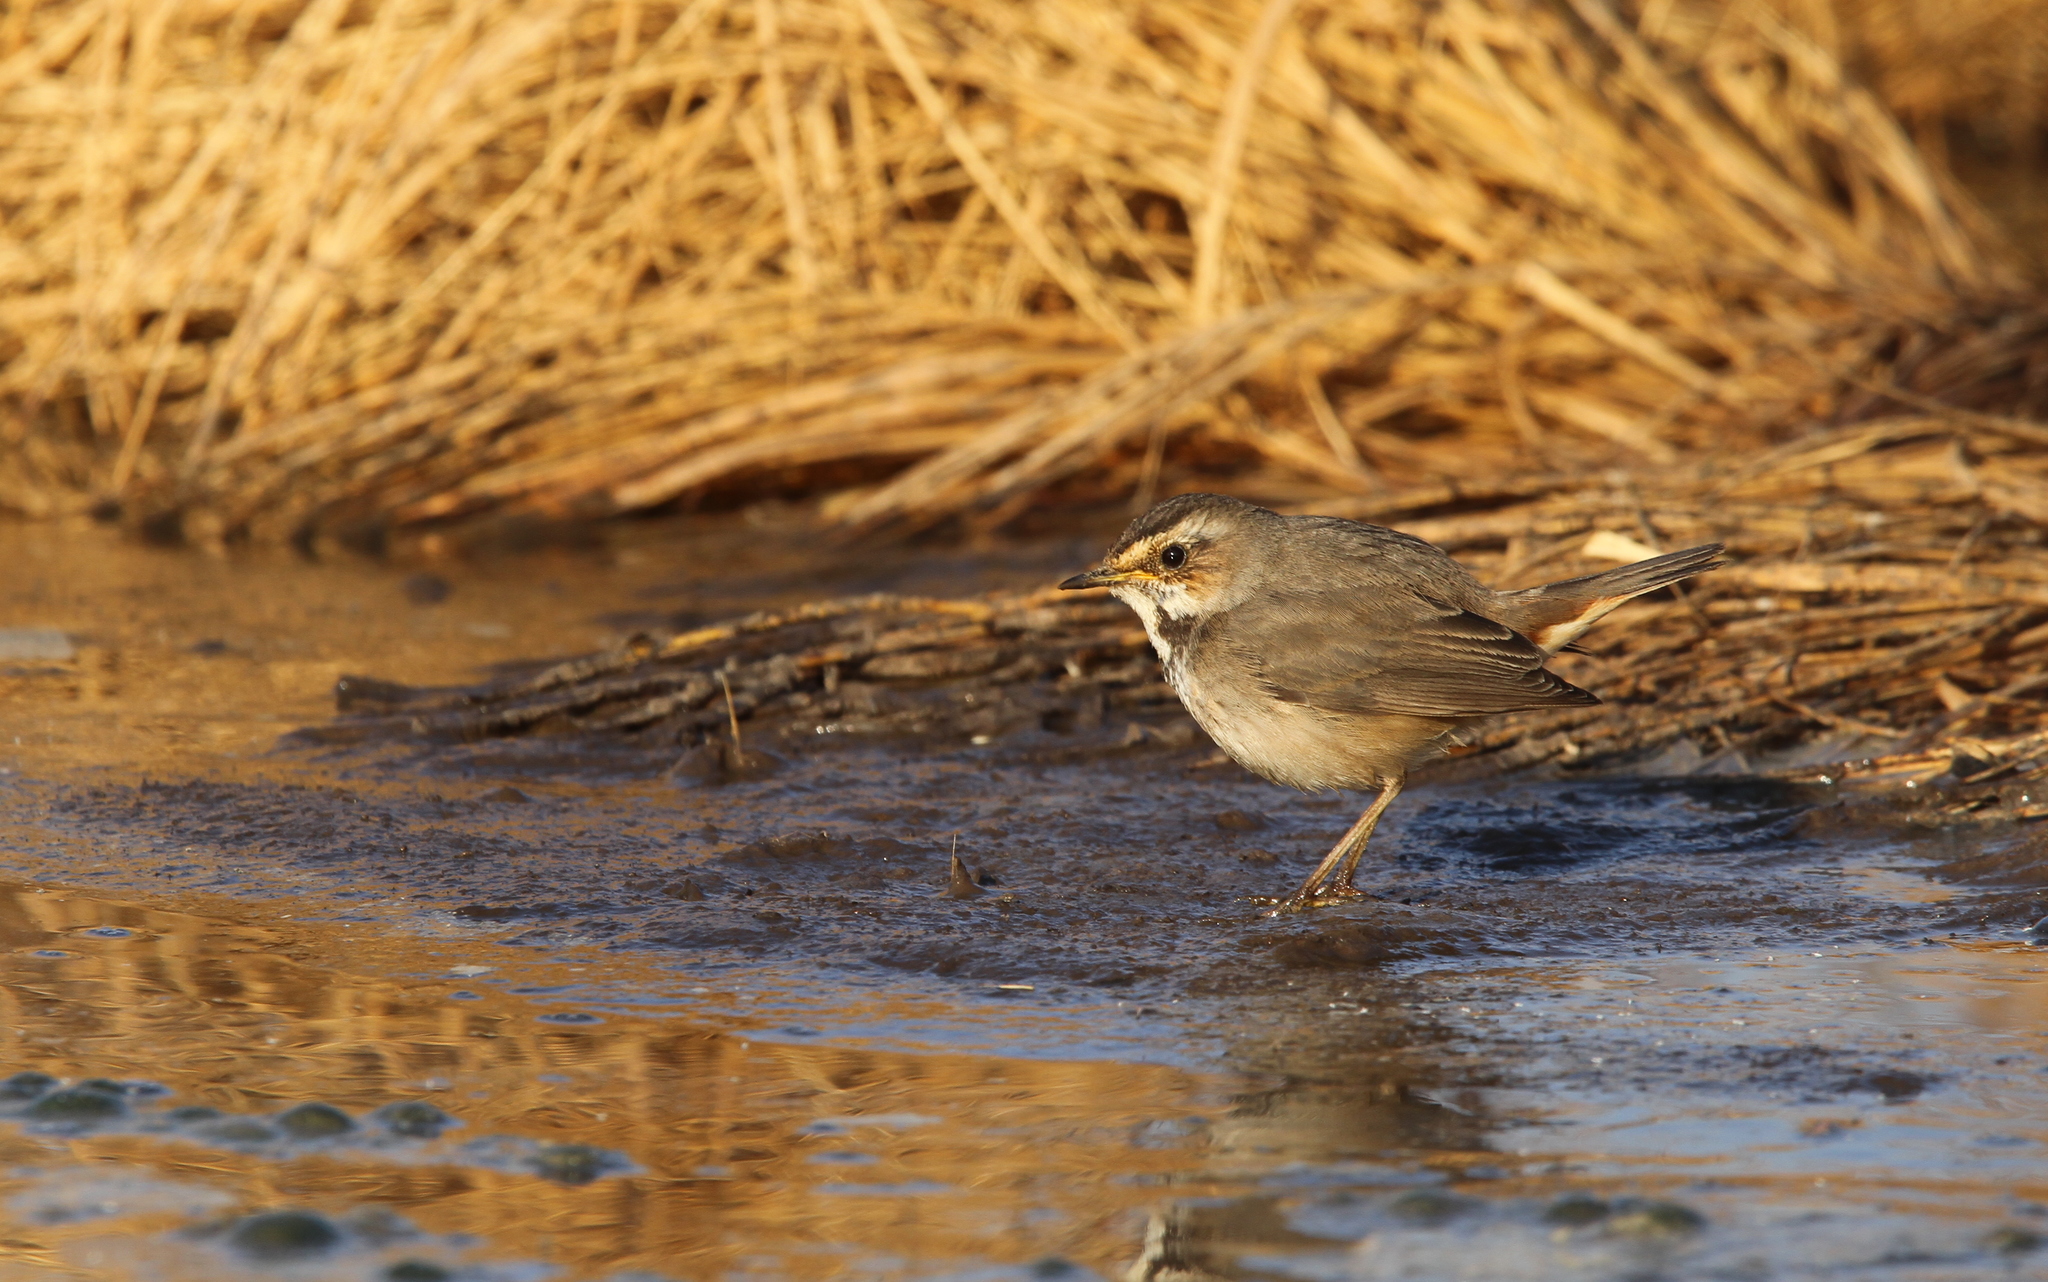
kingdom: Animalia
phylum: Chordata
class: Aves
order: Passeriformes
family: Muscicapidae
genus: Luscinia
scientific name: Luscinia svecica
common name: Bluethroat
